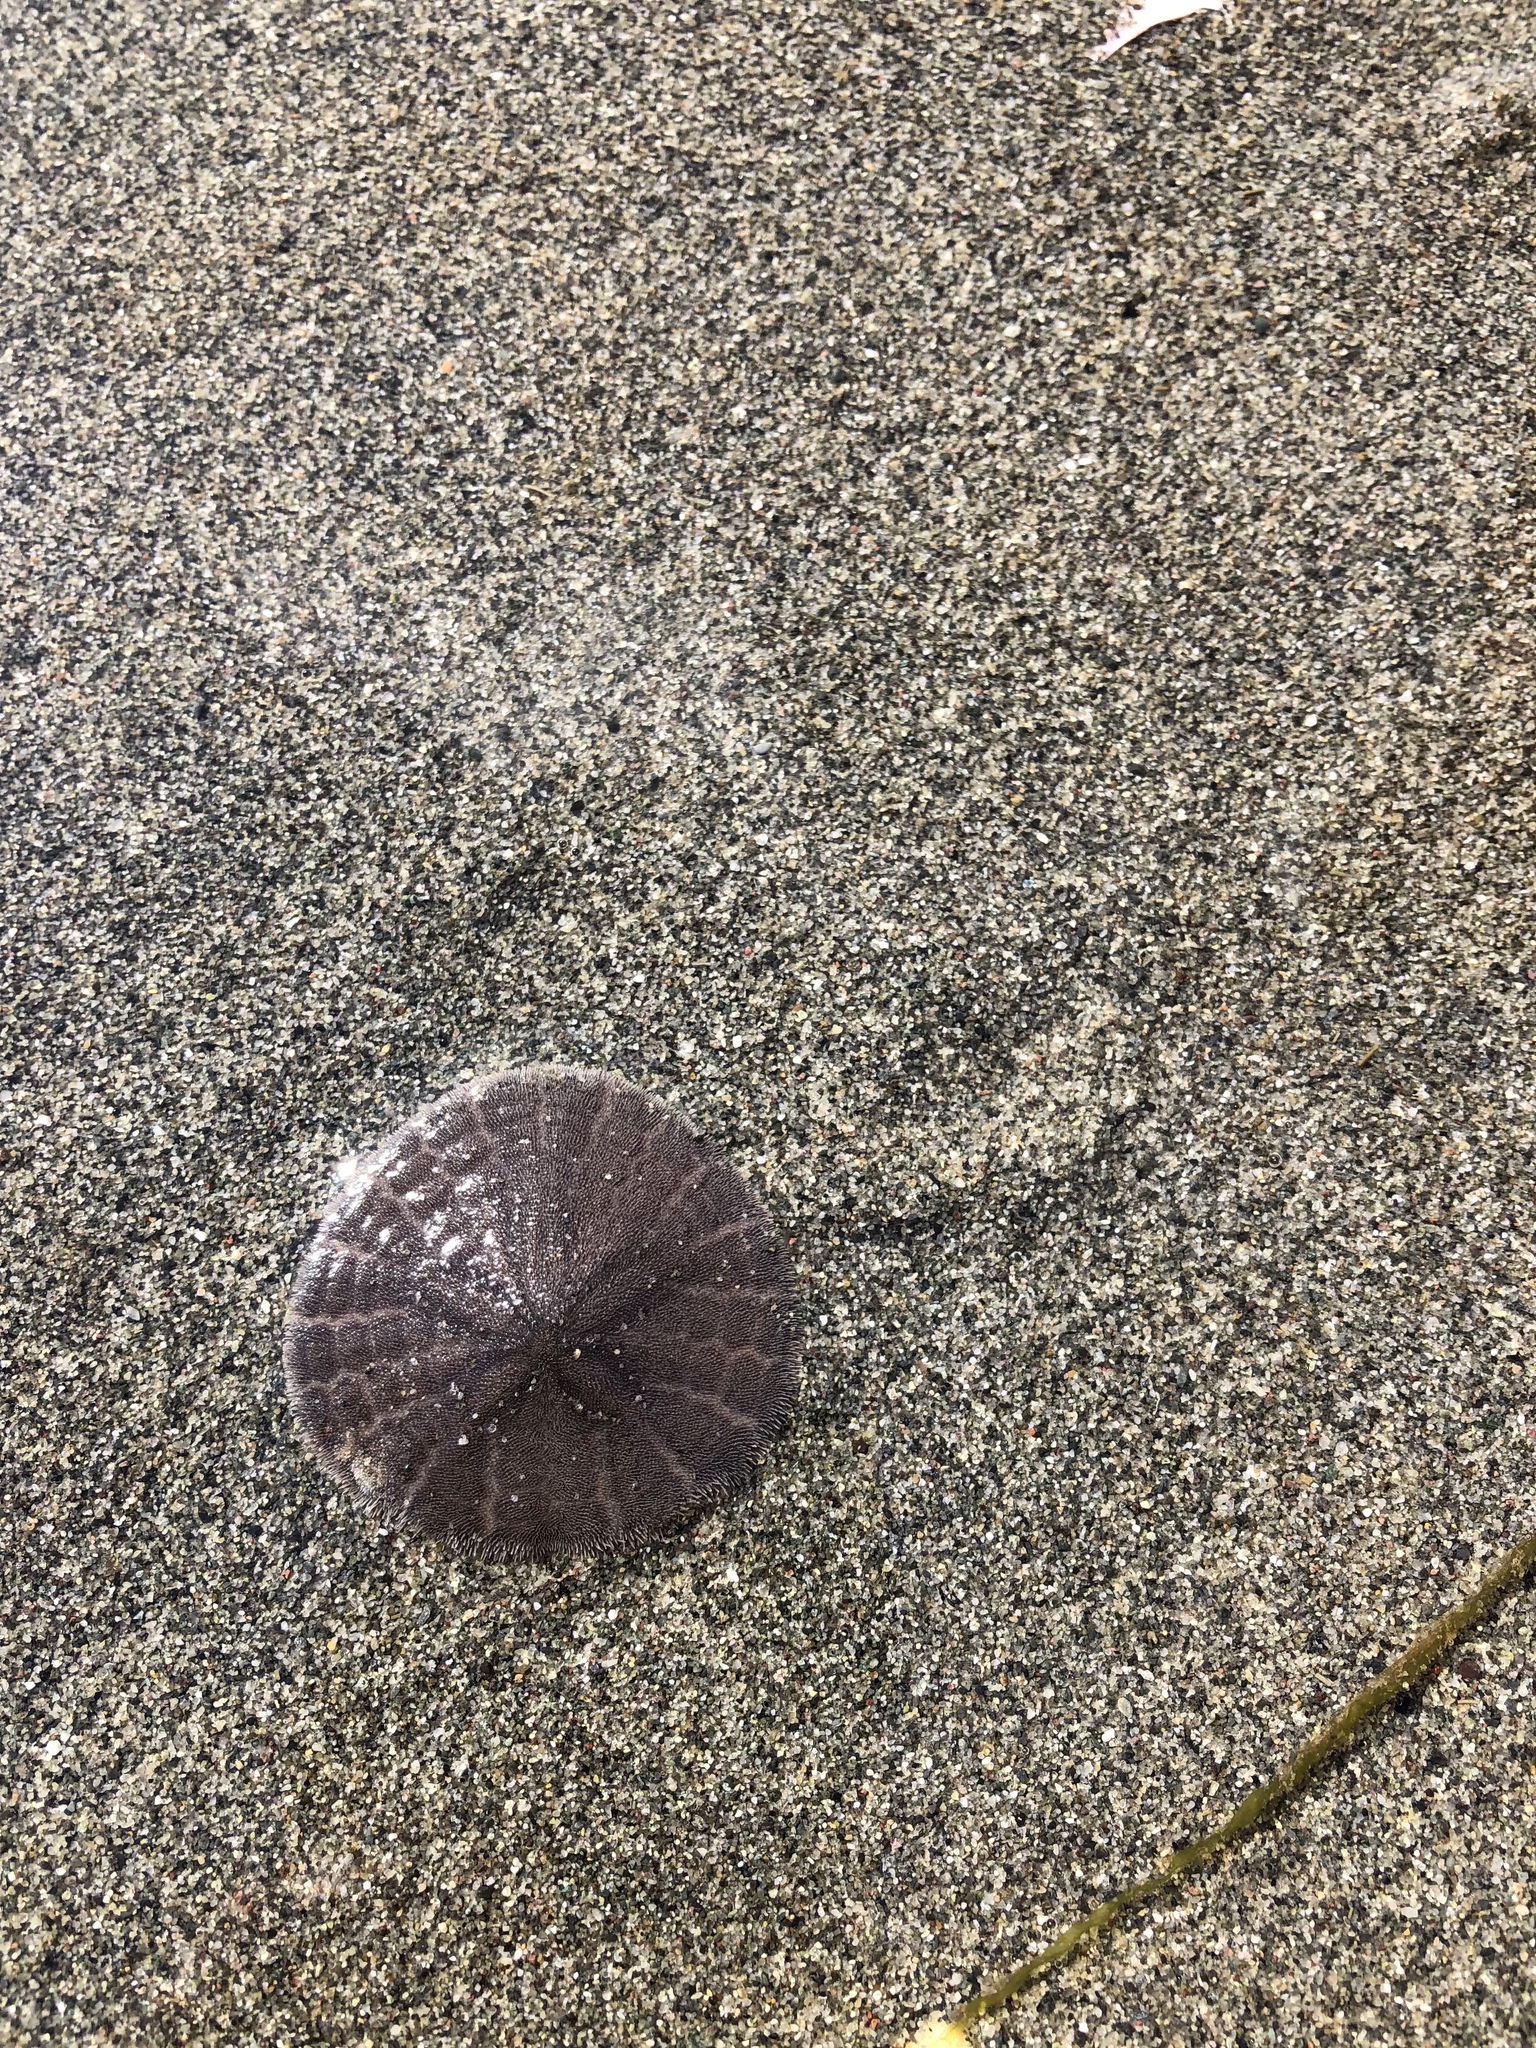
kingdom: Animalia
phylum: Echinodermata
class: Echinoidea
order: Echinolampadacea
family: Dendrasteridae
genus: Dendraster
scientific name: Dendraster excentricus
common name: Eccentric sand dollar sea urchin
